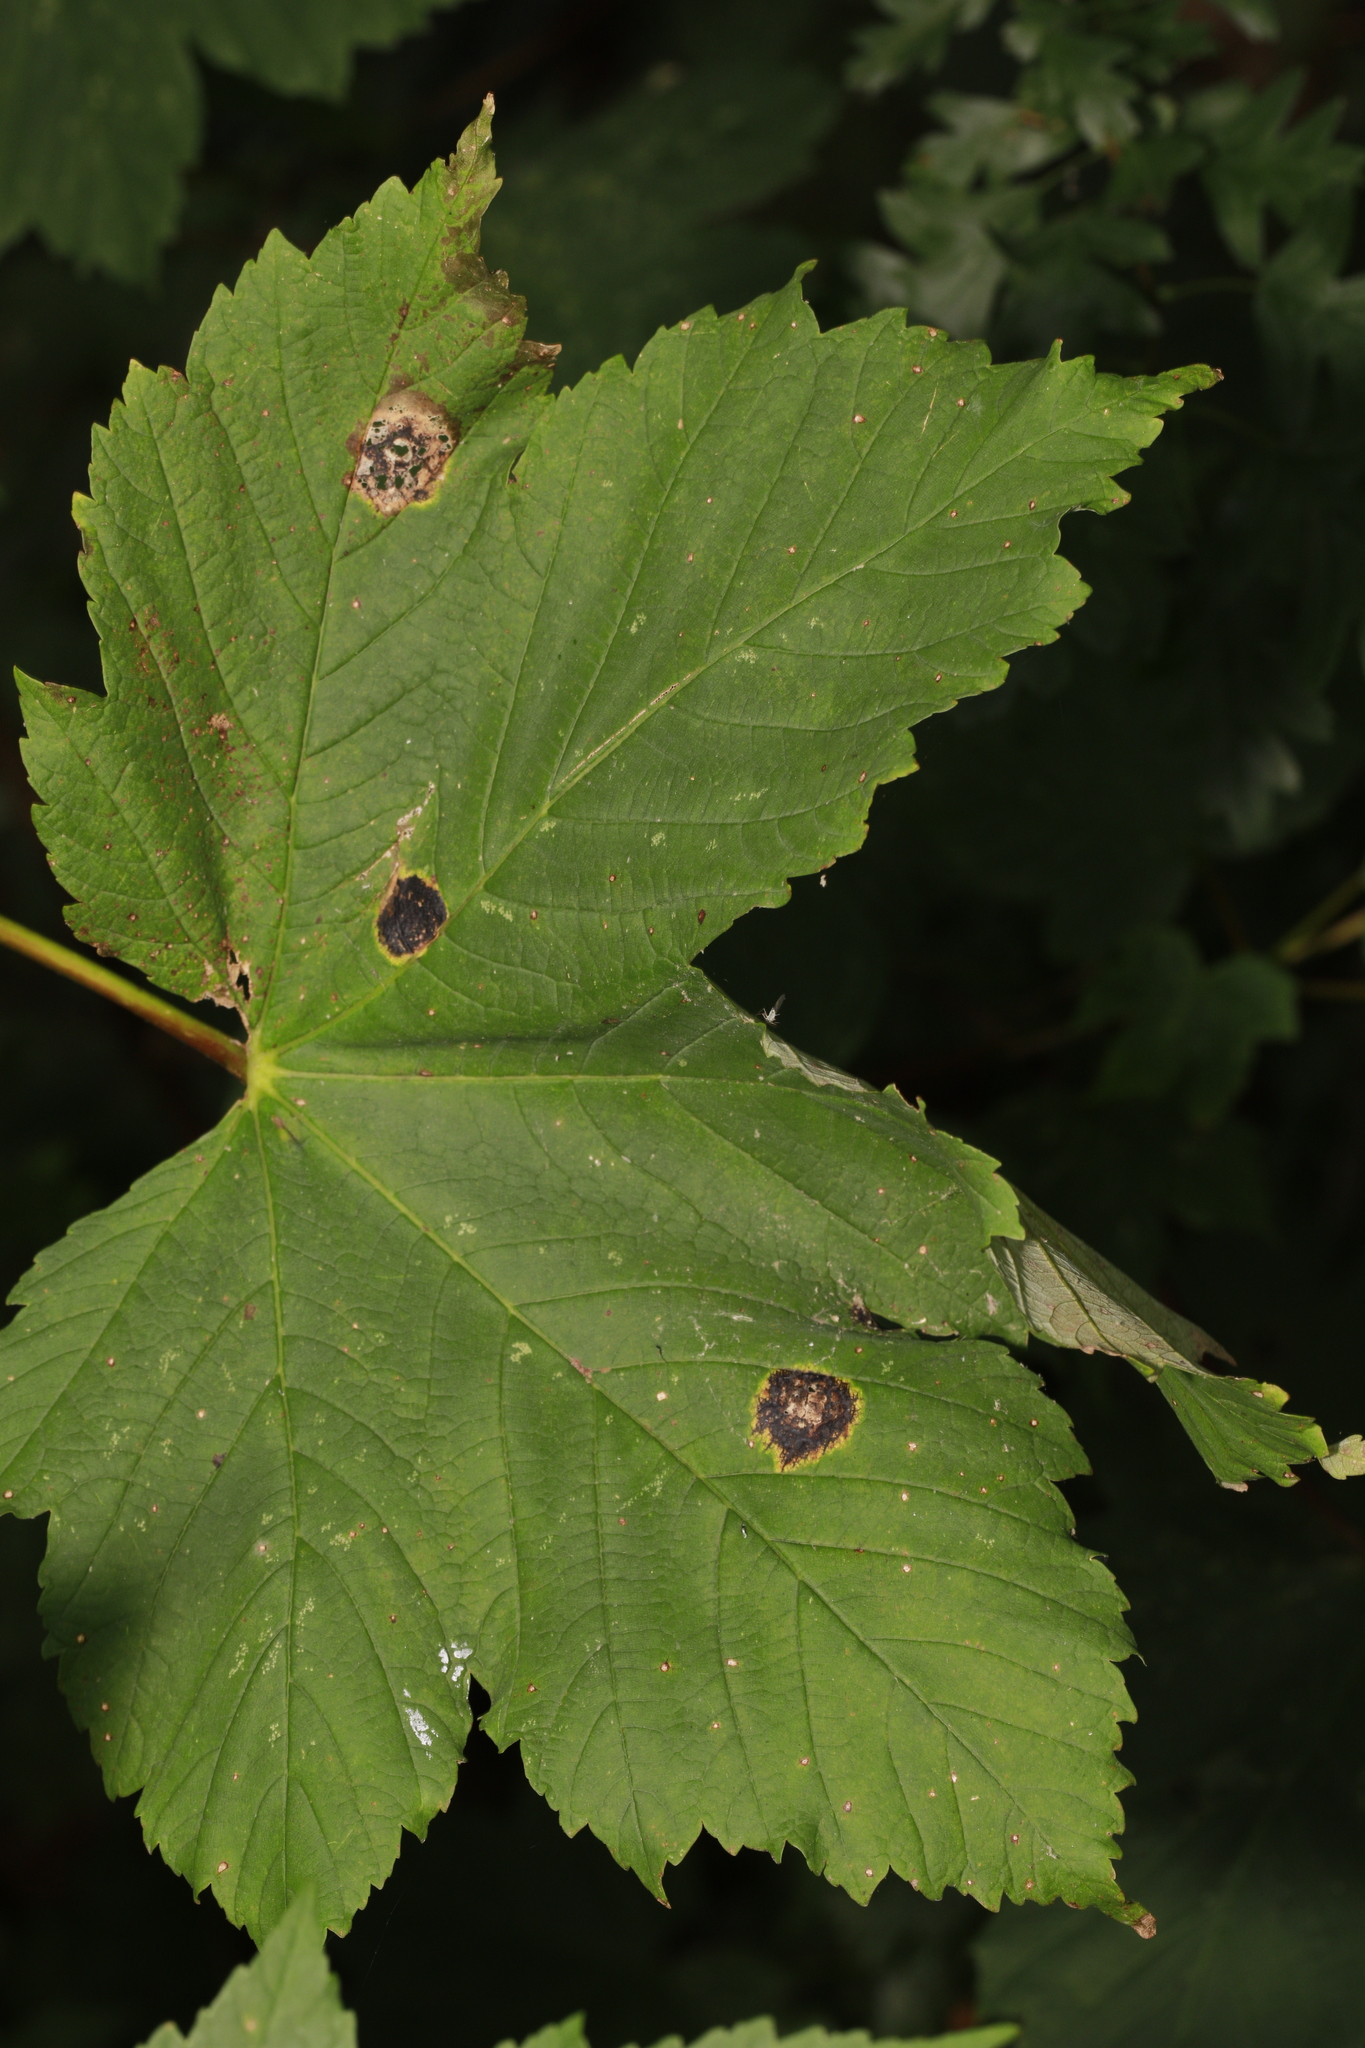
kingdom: Fungi
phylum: Ascomycota
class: Leotiomycetes
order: Rhytismatales
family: Rhytismataceae
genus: Rhytisma
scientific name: Rhytisma acerinum
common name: European tar spot
